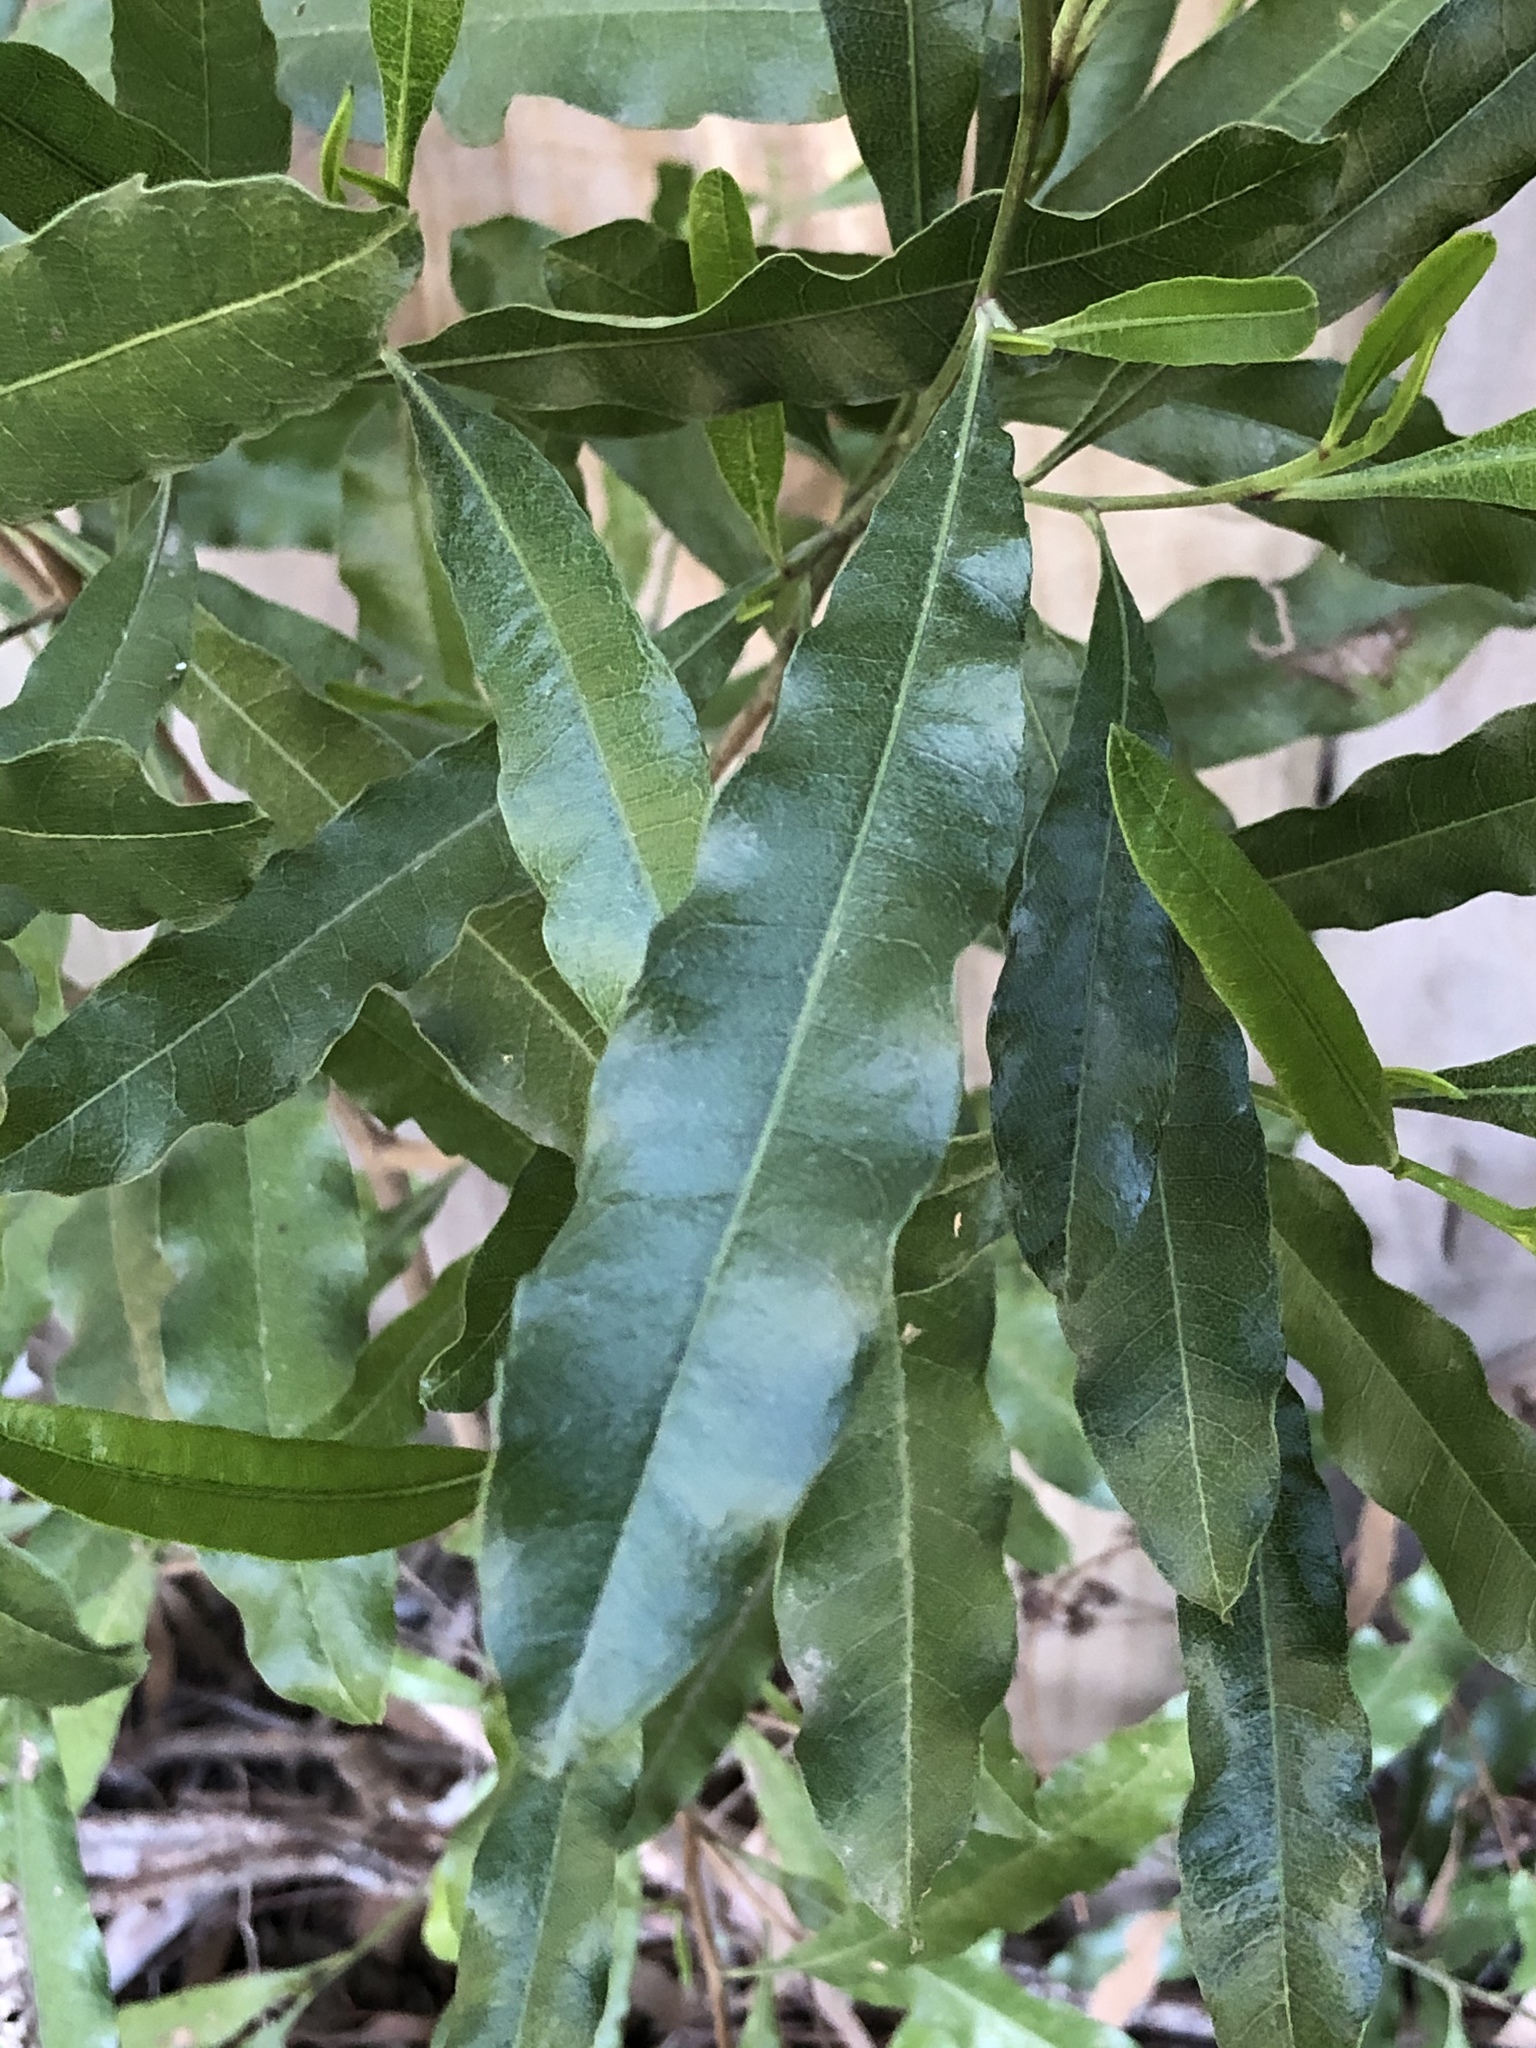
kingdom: Plantae
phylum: Tracheophyta
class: Magnoliopsida
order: Sapindales
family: Sapindaceae
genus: Dodonaea
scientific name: Dodonaea viscosa
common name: Hopbush
